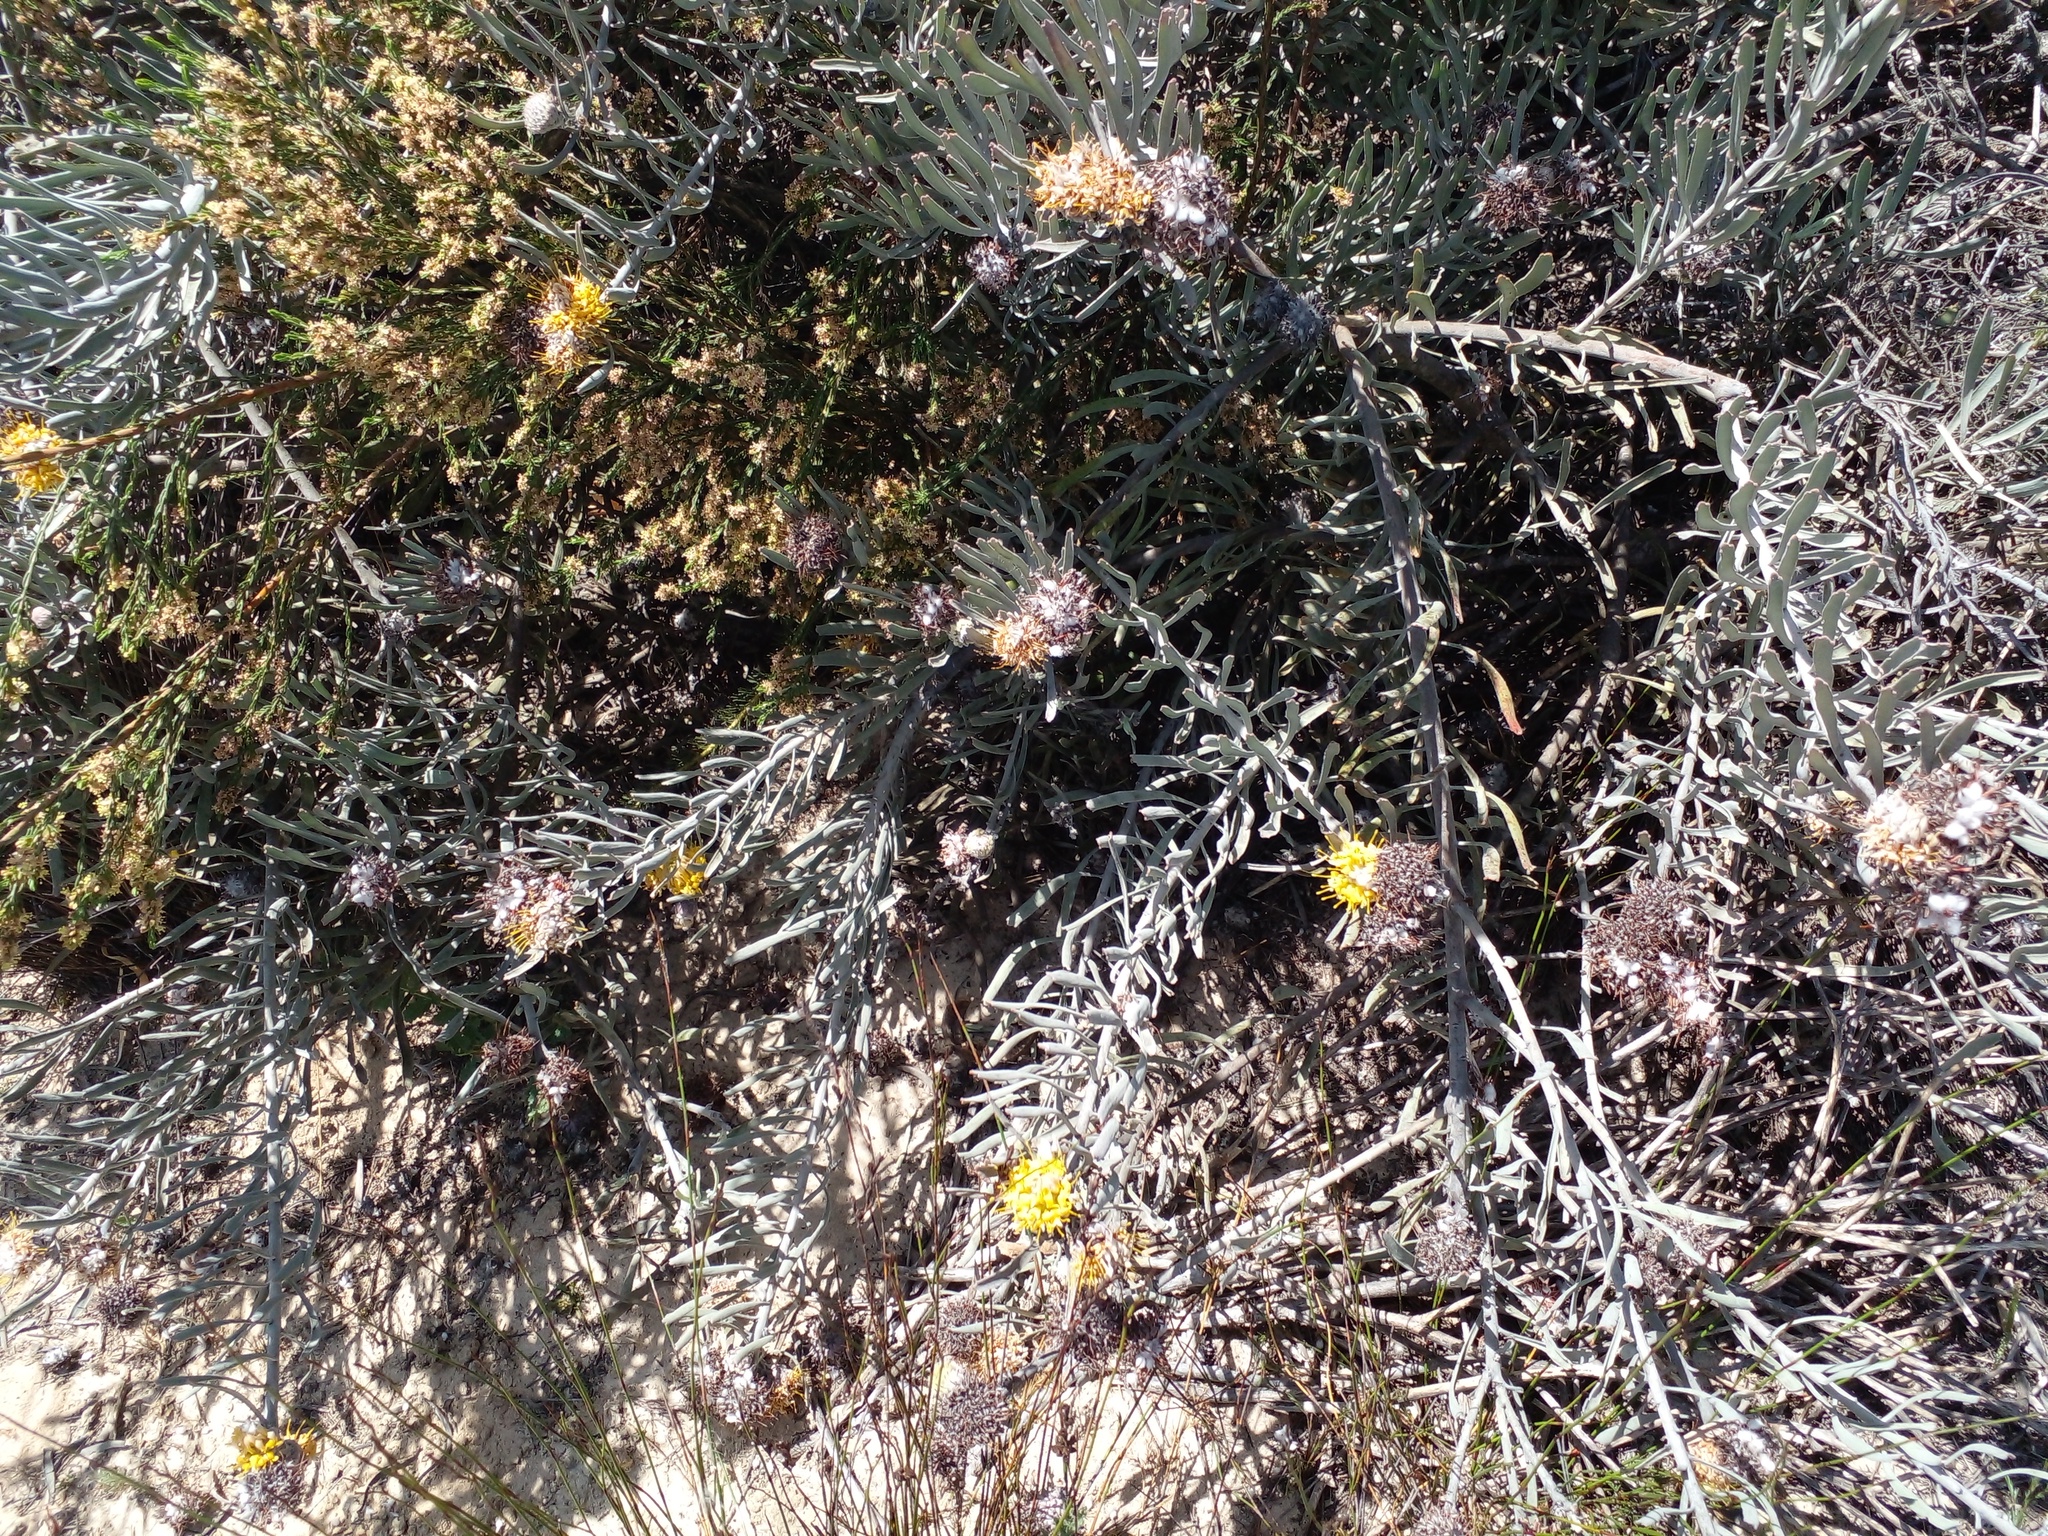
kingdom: Plantae
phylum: Tracheophyta
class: Magnoliopsida
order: Proteales
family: Proteaceae
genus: Leucospermum
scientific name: Leucospermum
